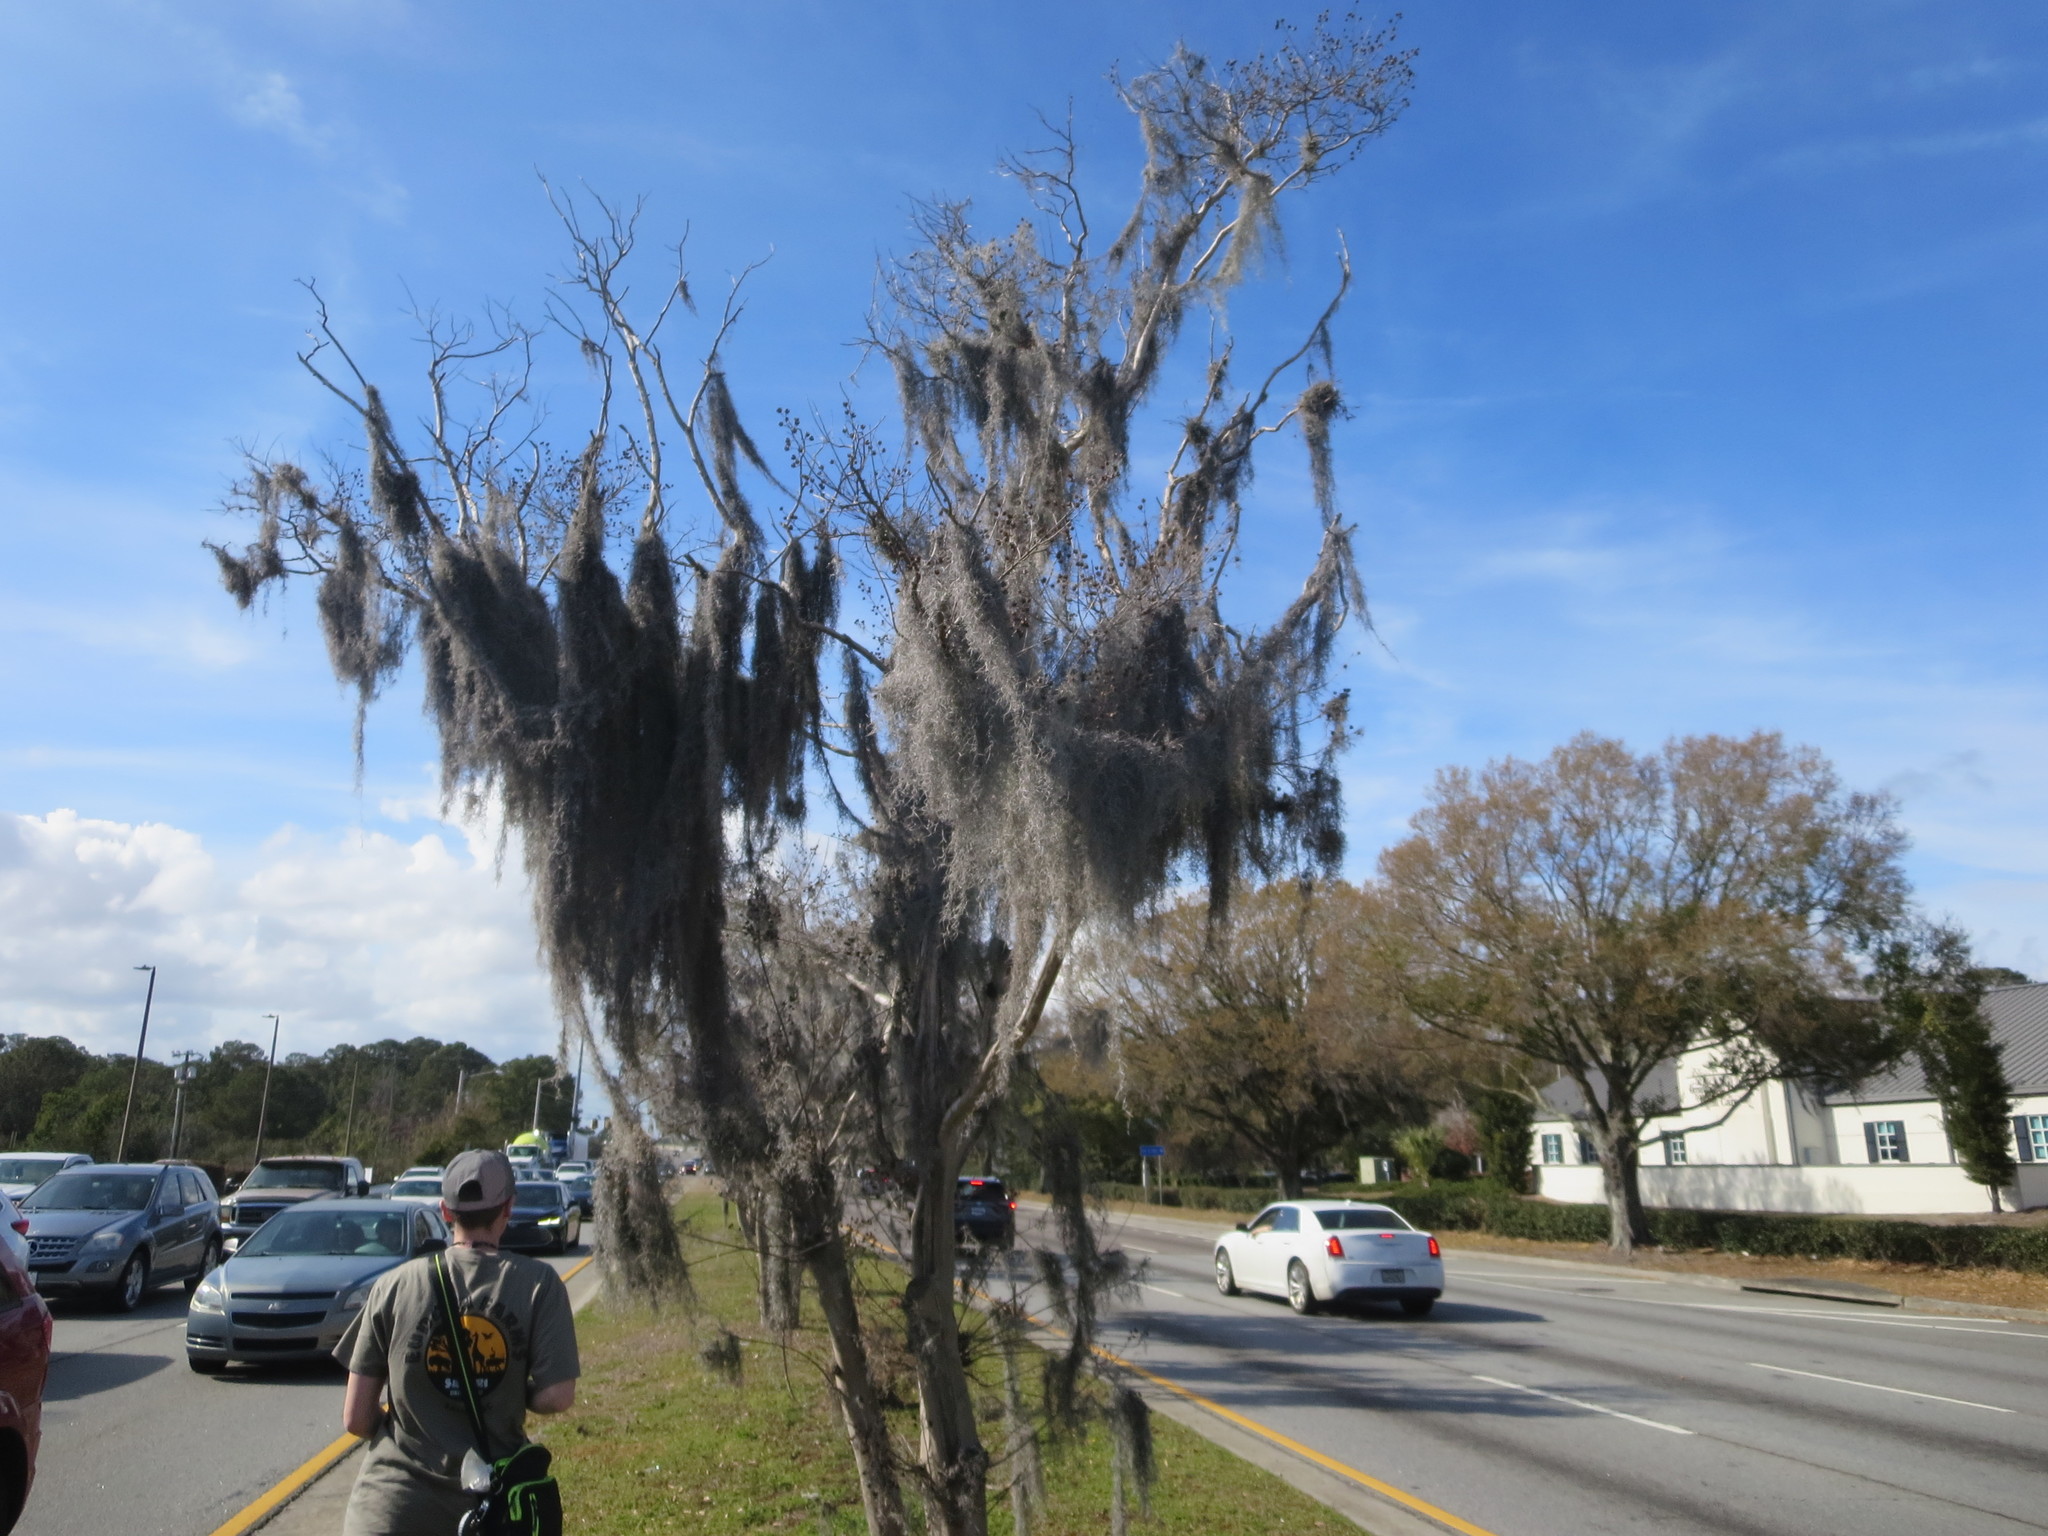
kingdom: Plantae
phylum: Tracheophyta
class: Liliopsida
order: Poales
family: Bromeliaceae
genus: Tillandsia
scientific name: Tillandsia usneoides
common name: Spanish moss
